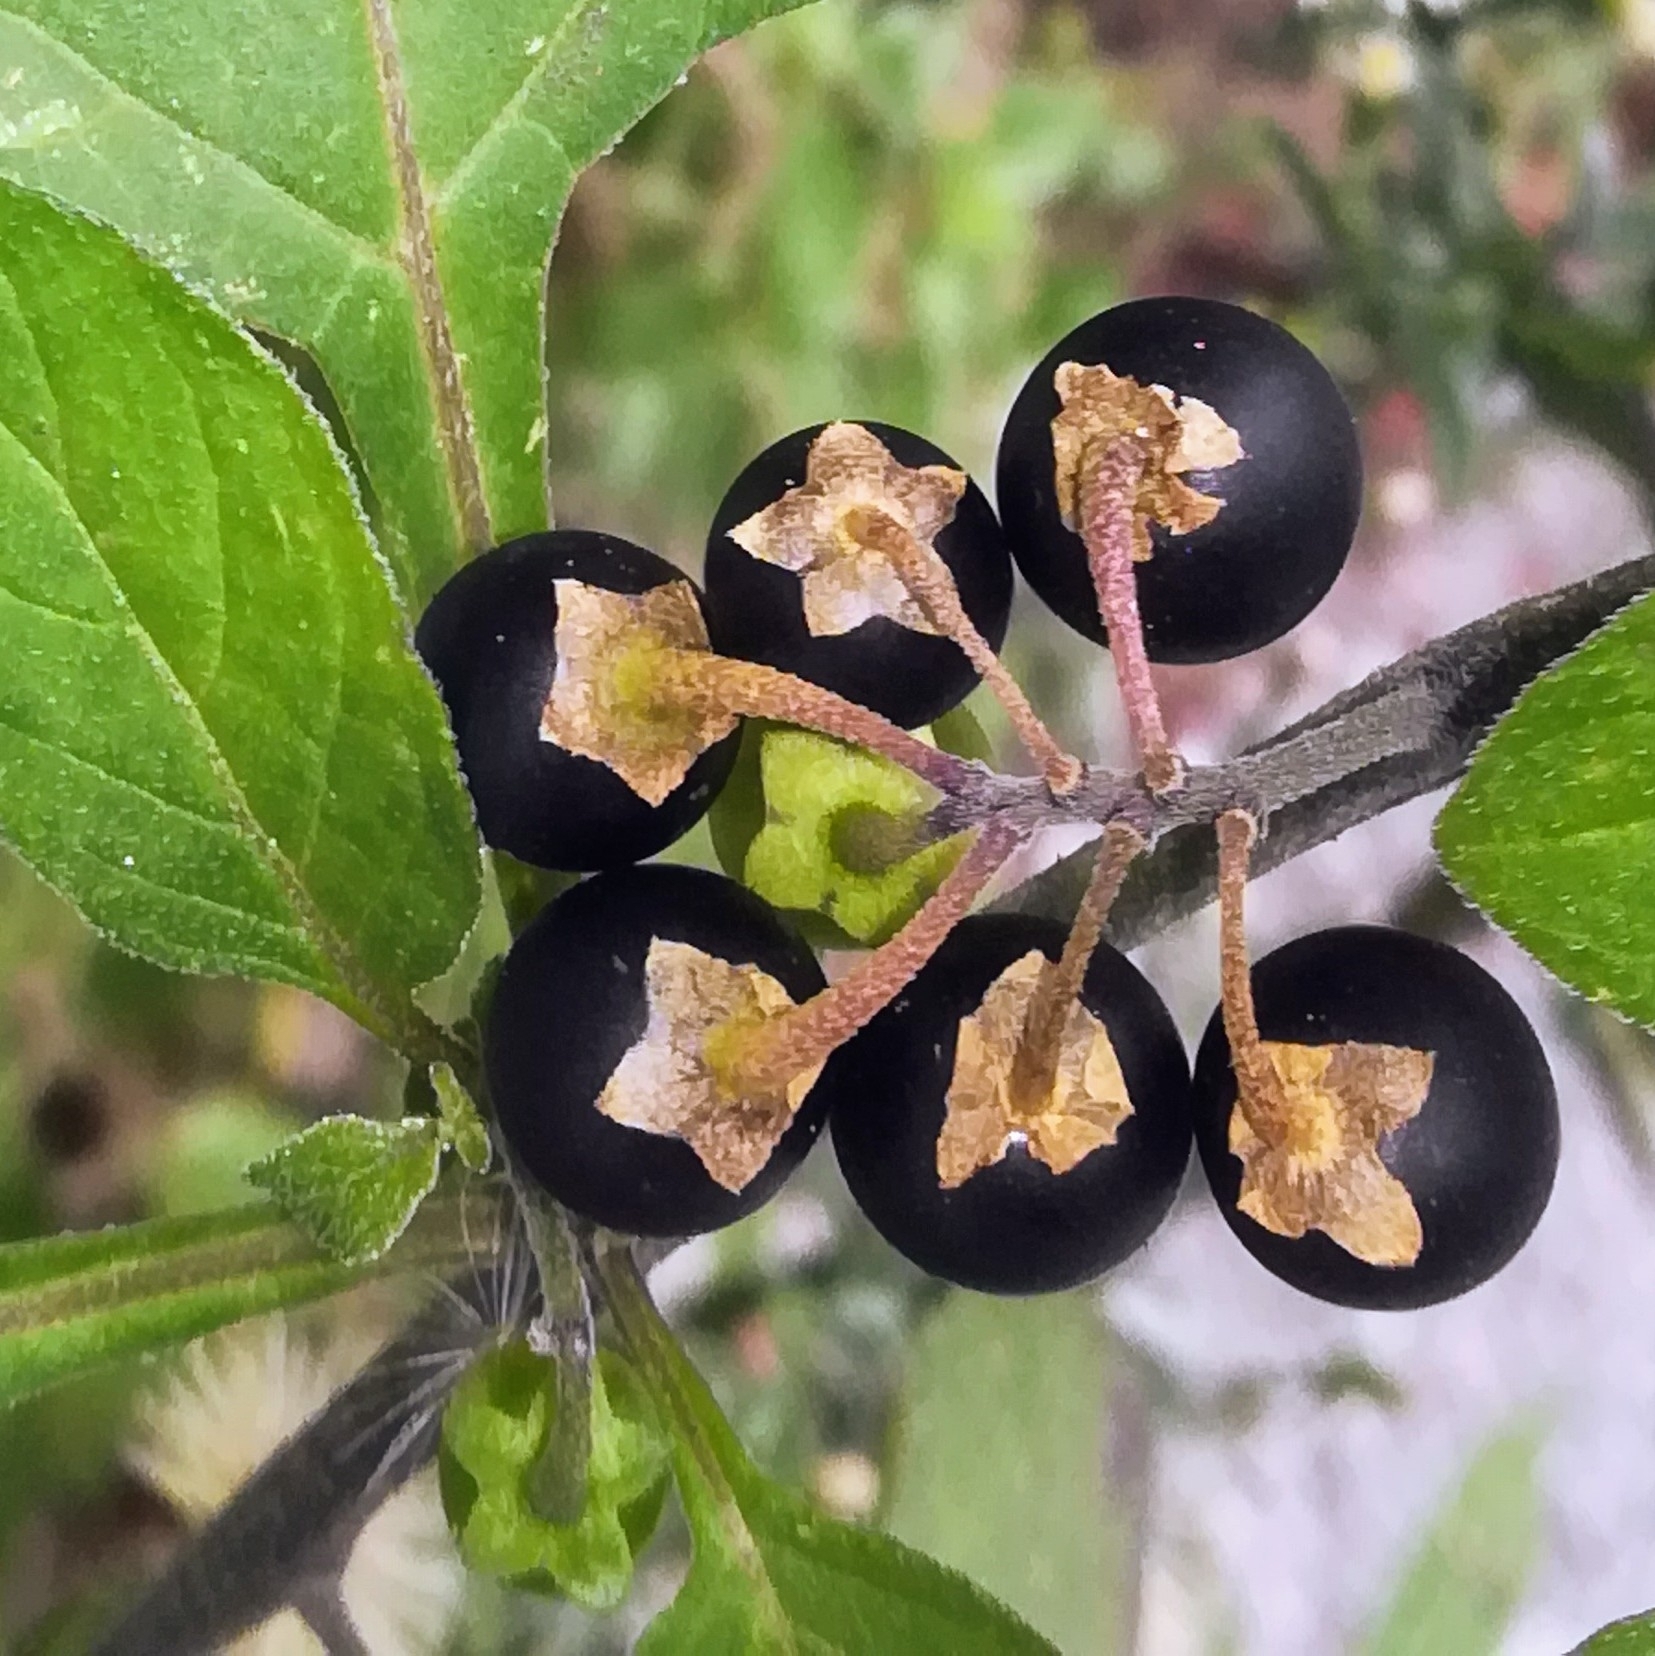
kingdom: Plantae
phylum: Tracheophyta
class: Magnoliopsida
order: Solanales
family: Solanaceae
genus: Solanum
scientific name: Solanum nigrum
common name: Black nightshade
